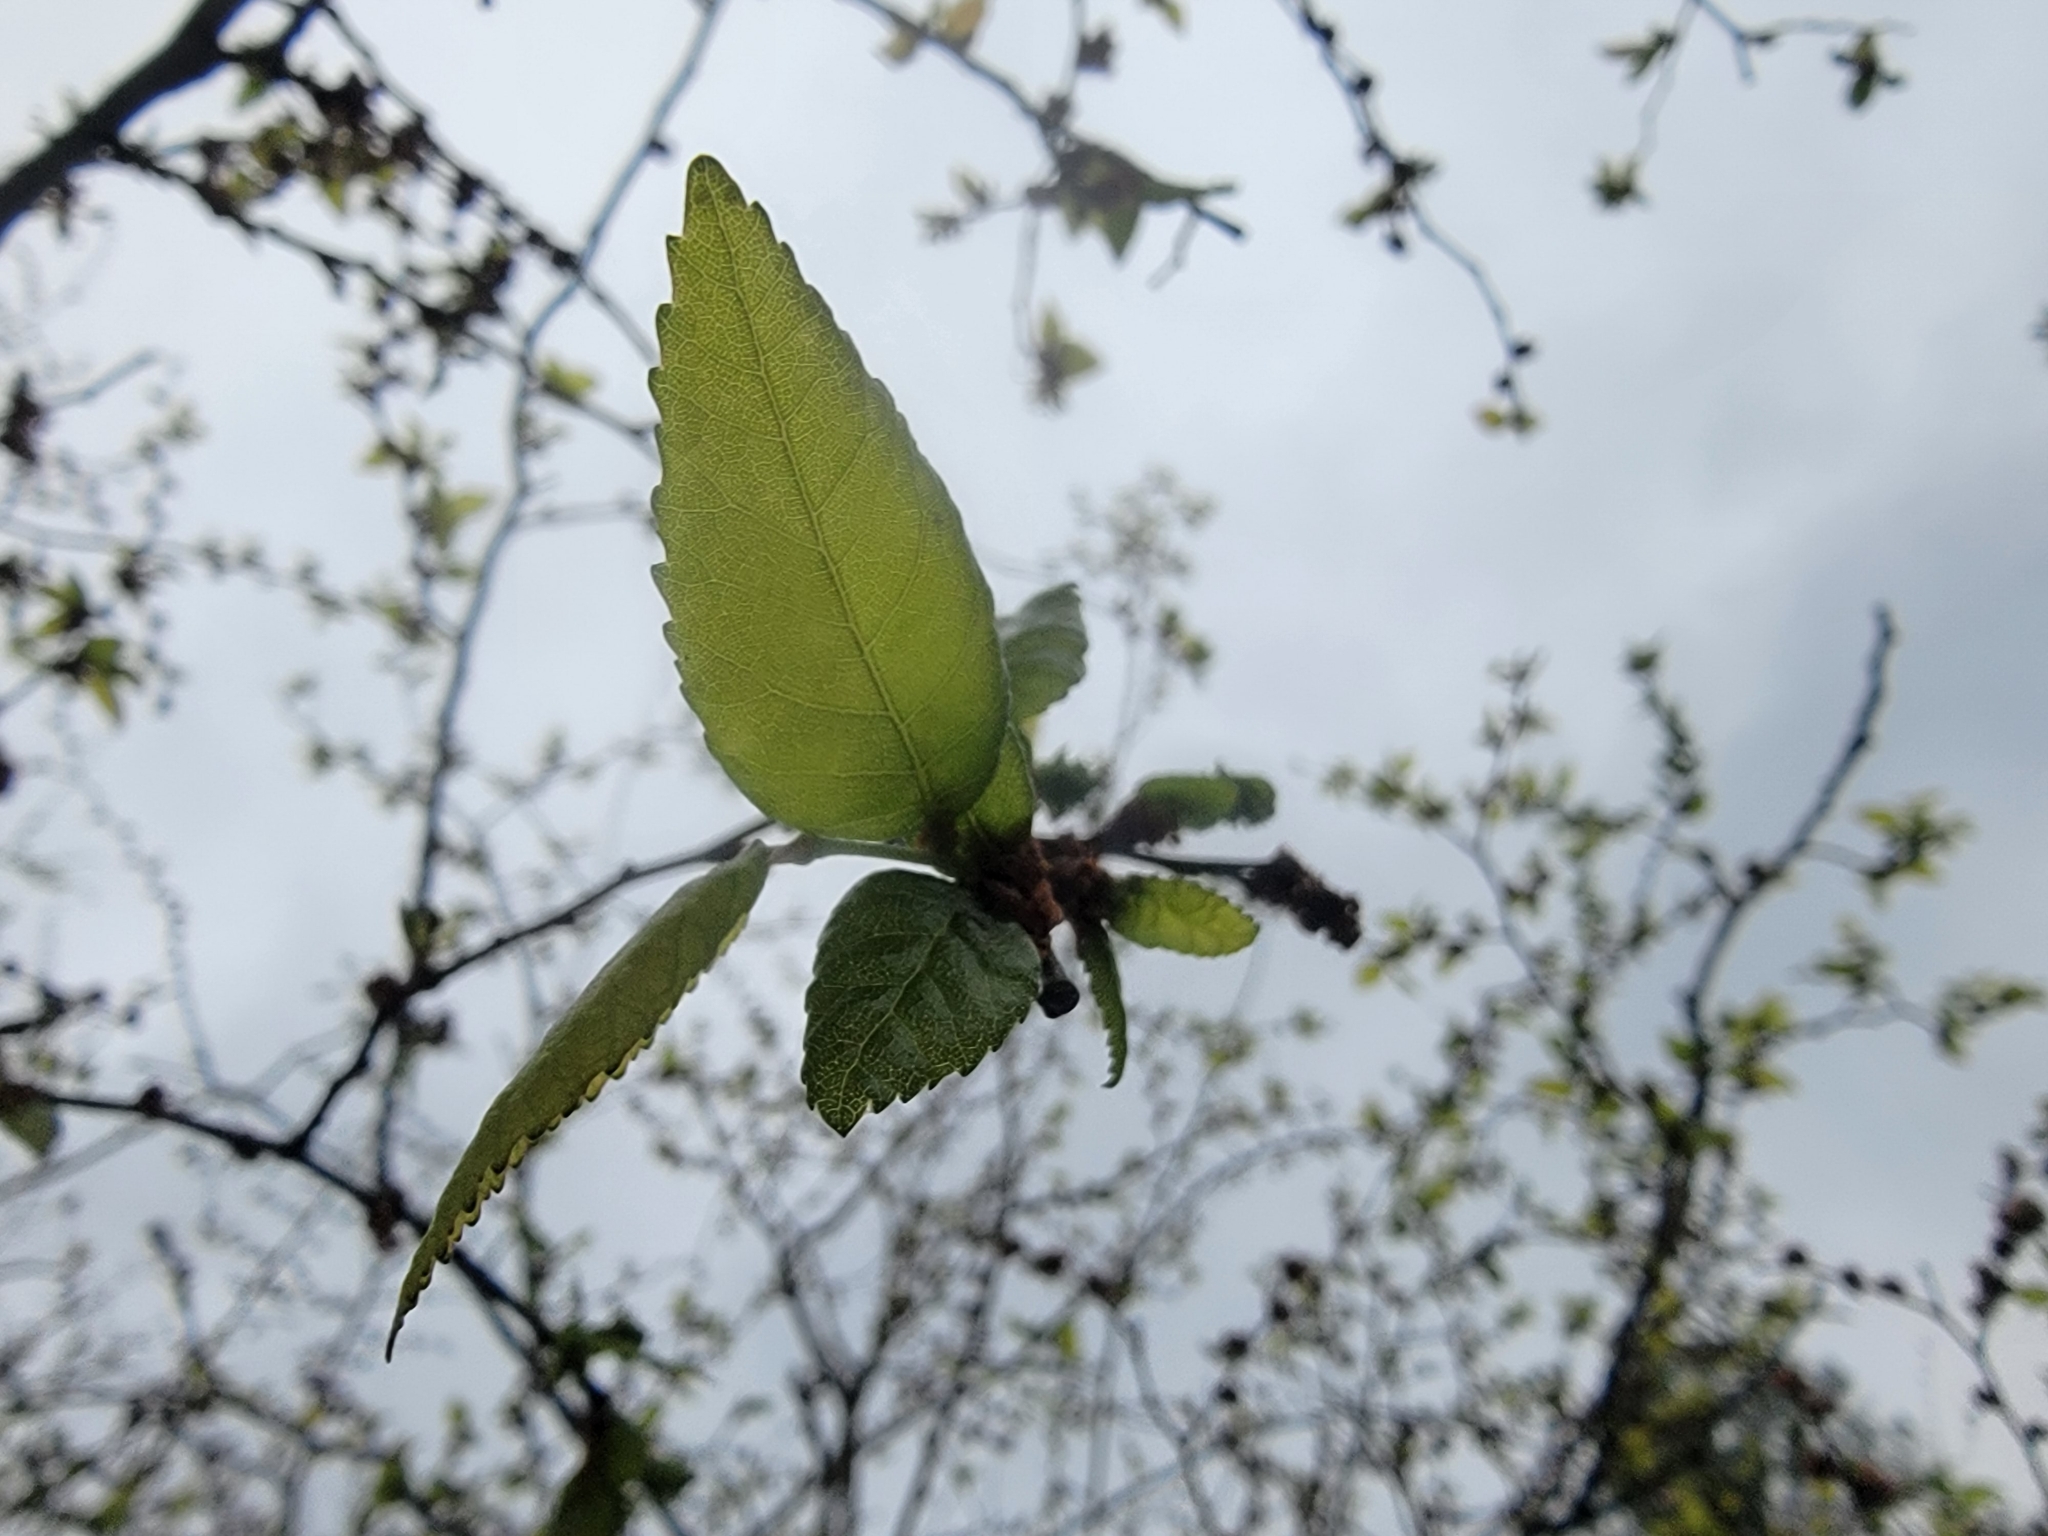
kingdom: Plantae
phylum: Tracheophyta
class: Magnoliopsida
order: Rosales
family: Ulmaceae
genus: Ulmus
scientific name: Ulmus alata
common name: Winged elm
